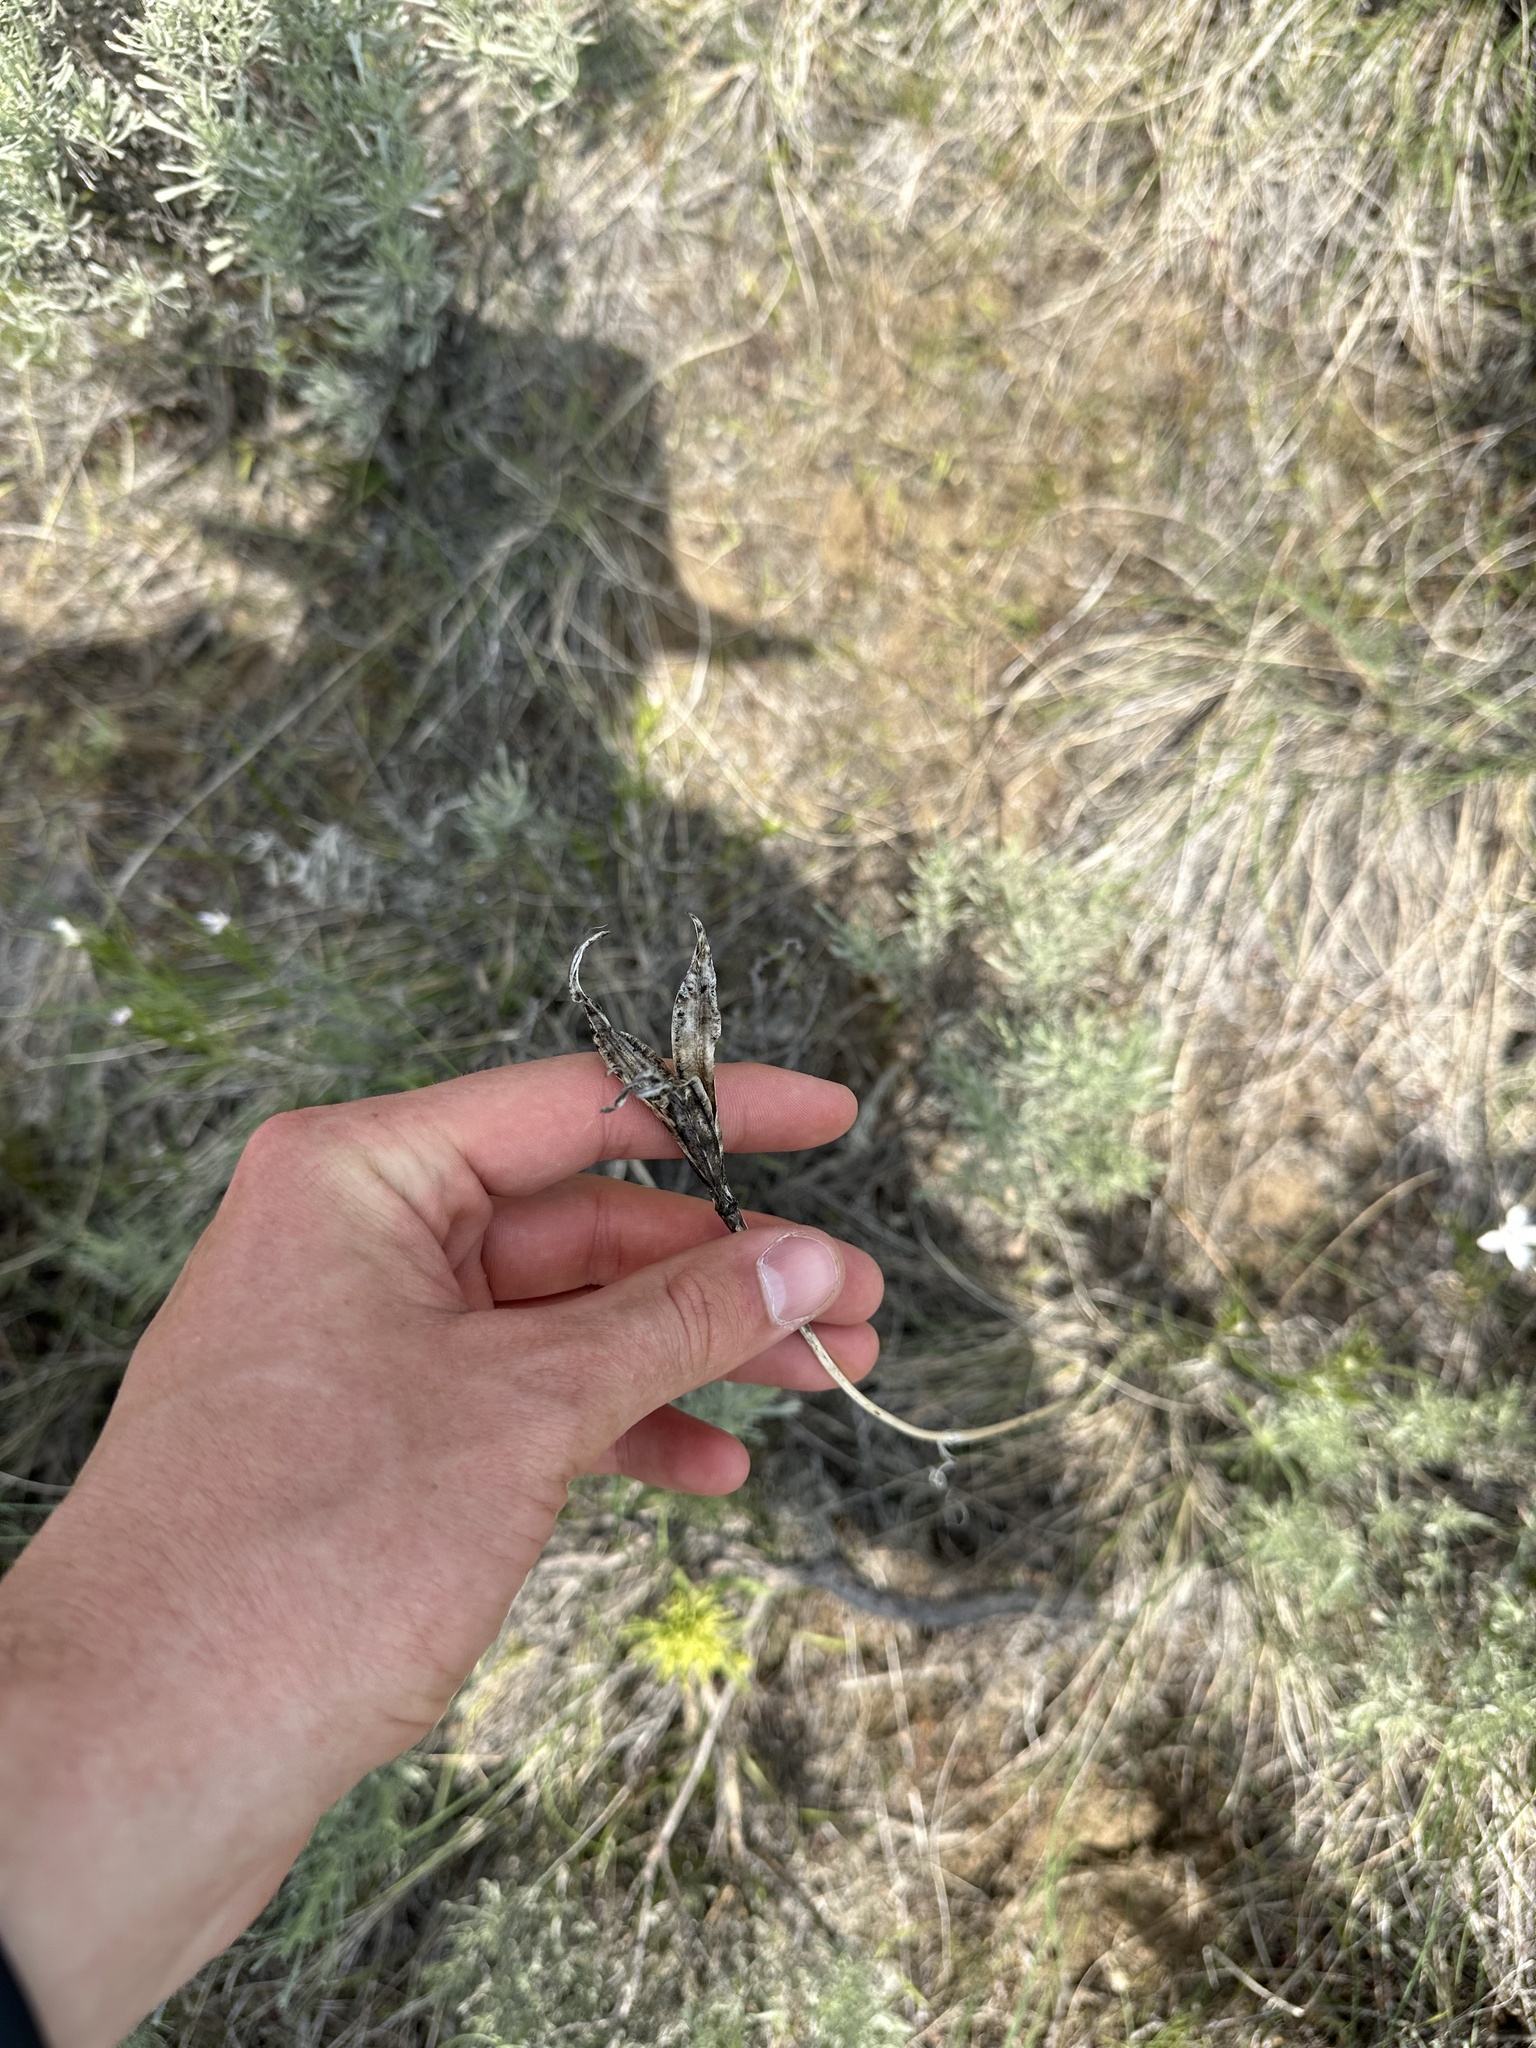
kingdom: Plantae
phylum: Tracheophyta
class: Liliopsida
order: Liliales
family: Liliaceae
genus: Calochortus
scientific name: Calochortus macrocarpus
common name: Green-band mariposa lily
